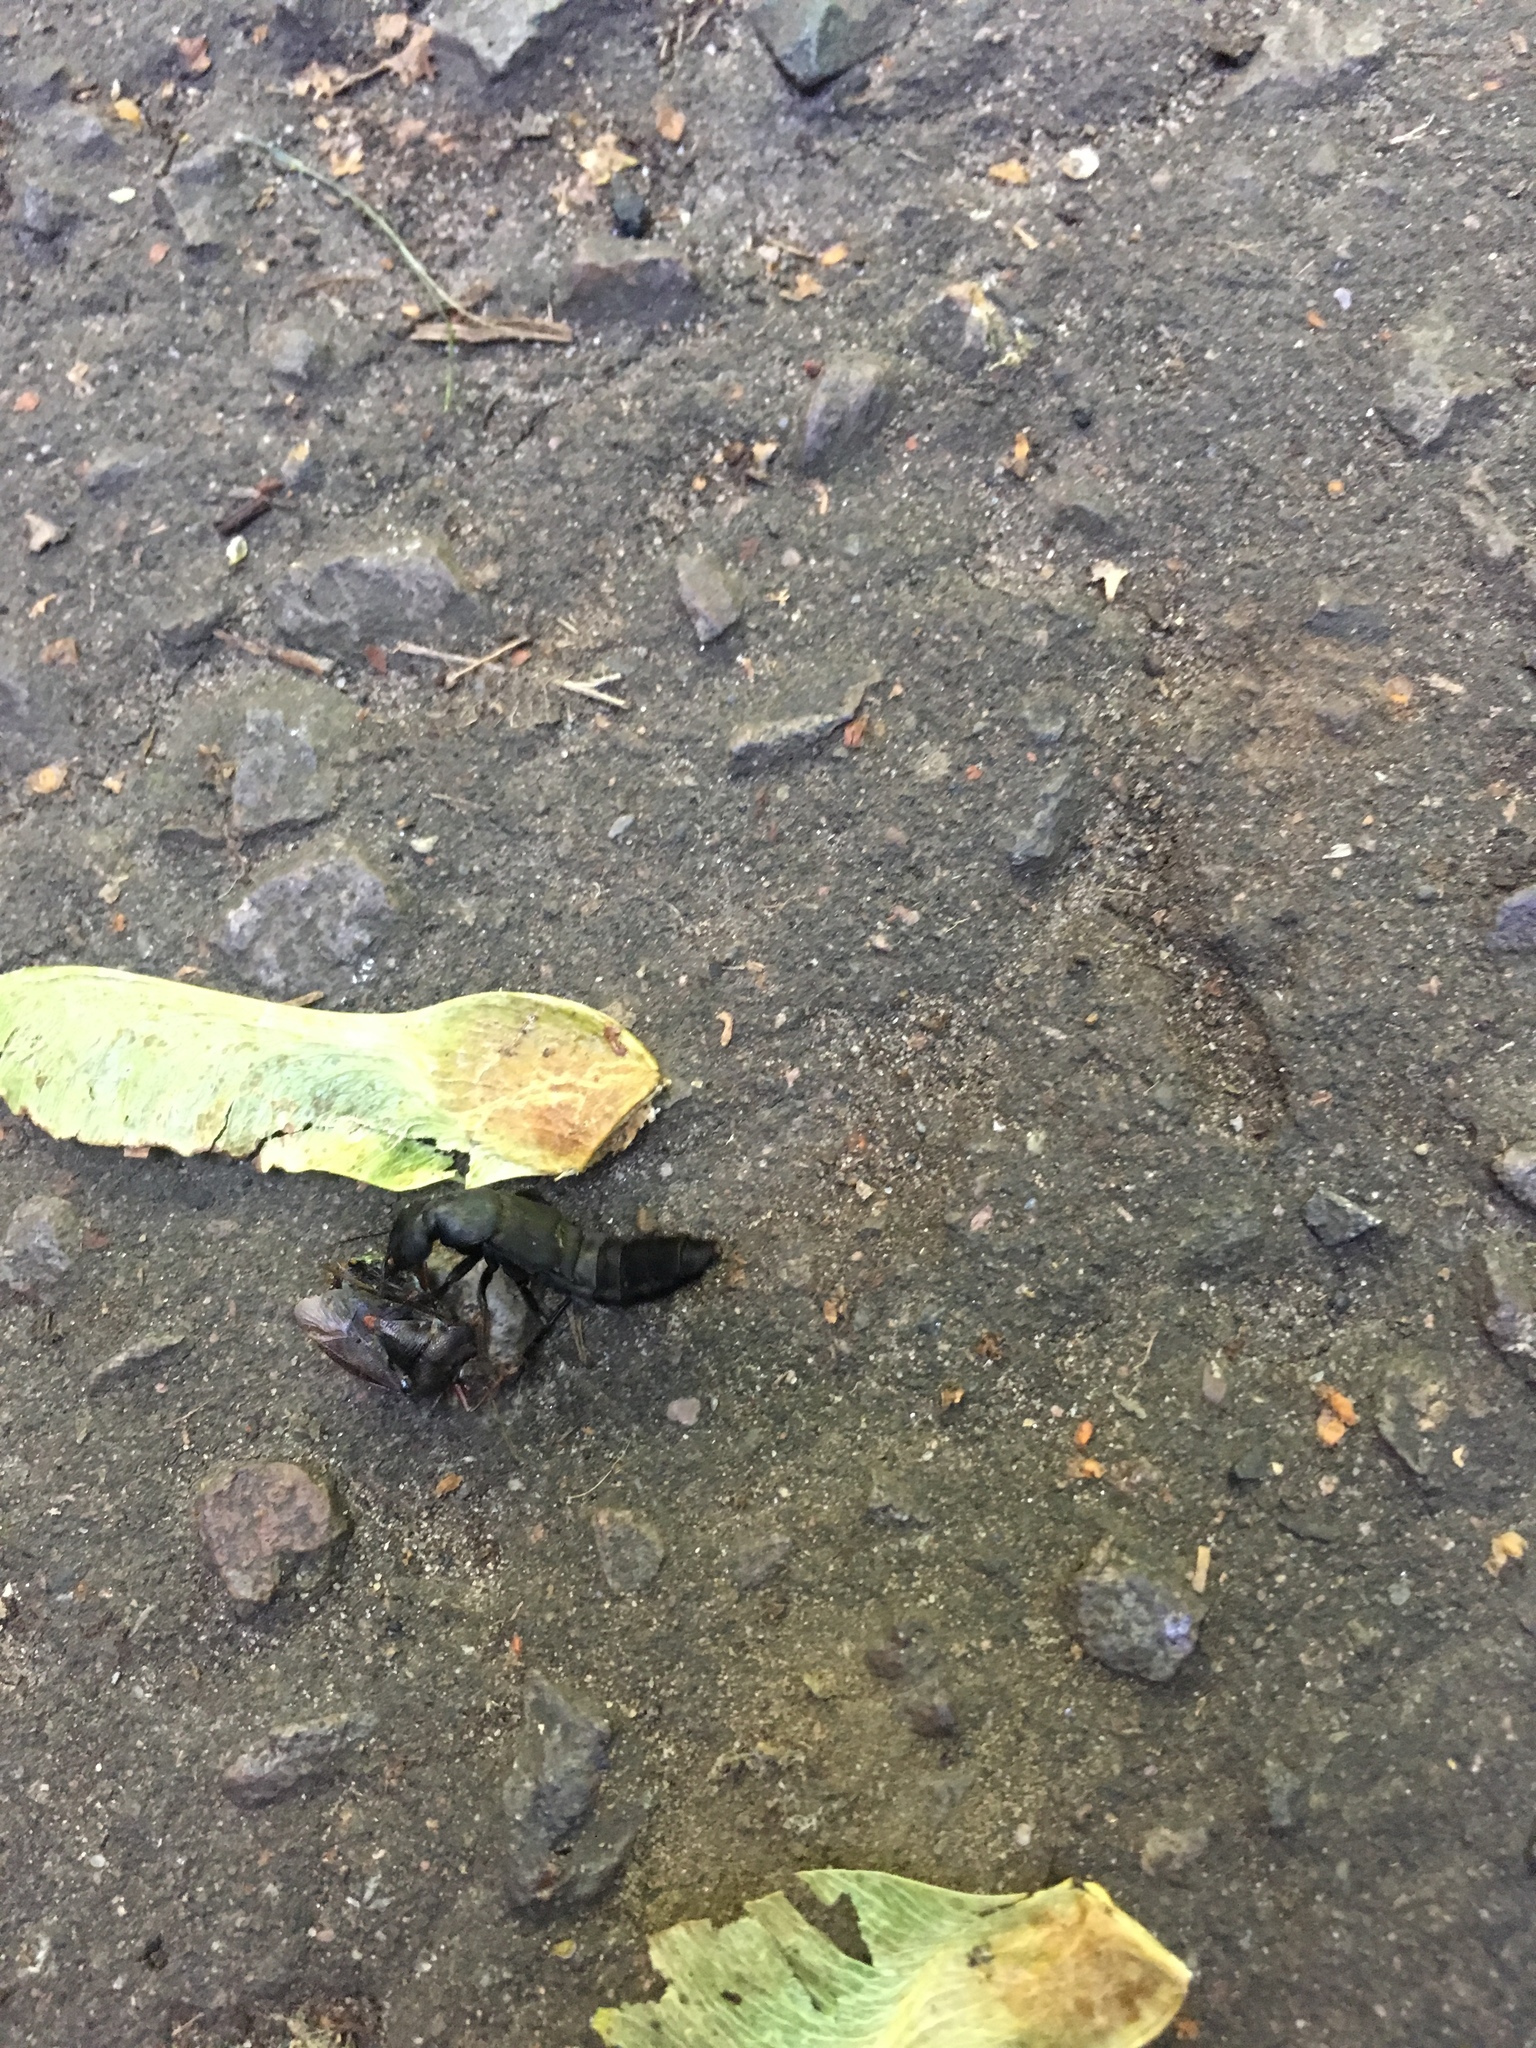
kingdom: Animalia
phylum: Arthropoda
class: Insecta
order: Coleoptera
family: Staphylinidae
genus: Ocypus
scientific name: Ocypus olens
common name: Devil's coach-horse
